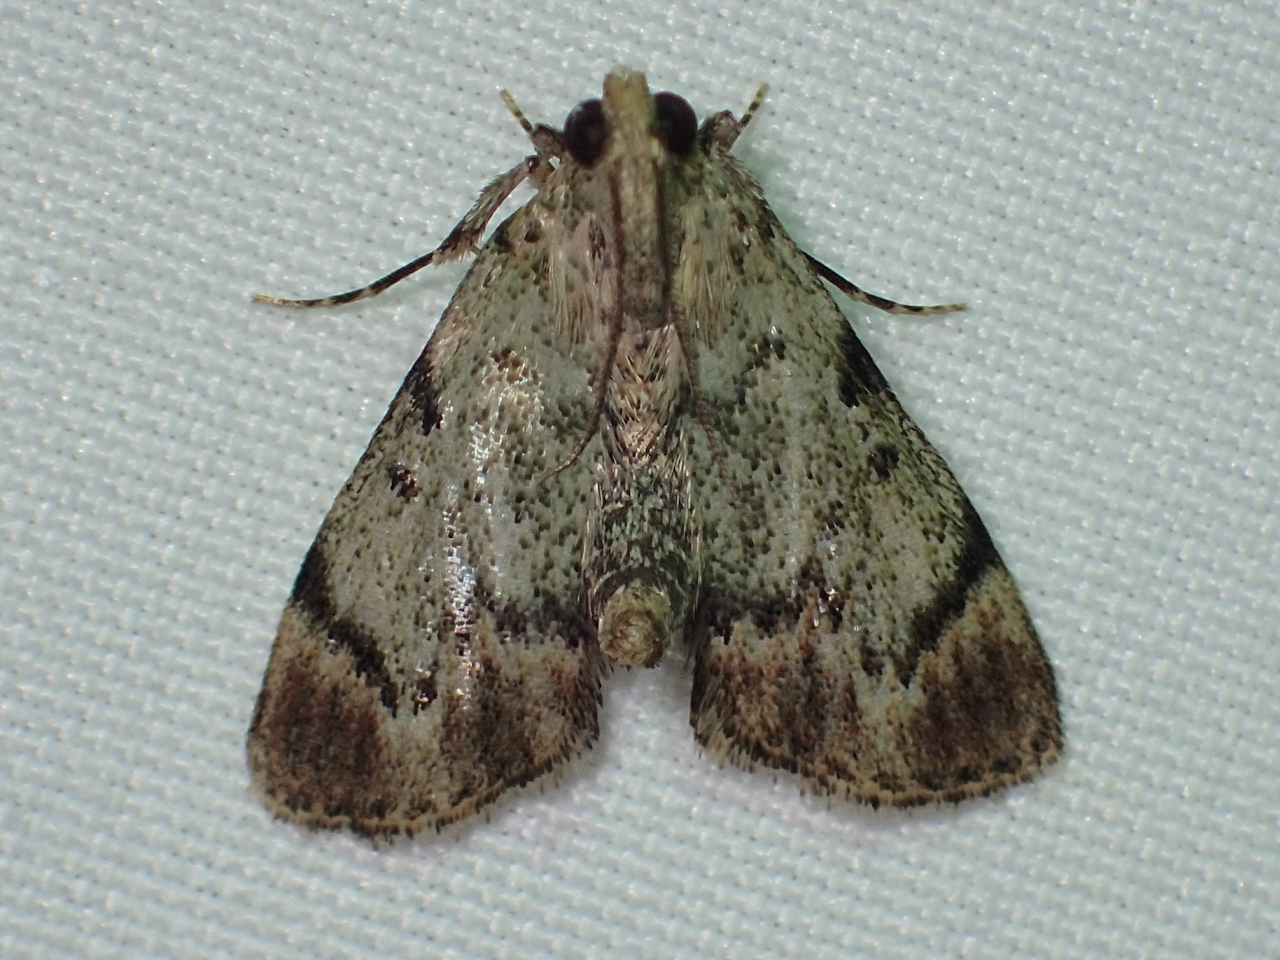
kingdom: Animalia
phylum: Arthropoda
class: Insecta
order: Lepidoptera
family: Pyralidae
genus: Epipaschia
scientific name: Epipaschia superatalis
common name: Dimorphic macalla moth
